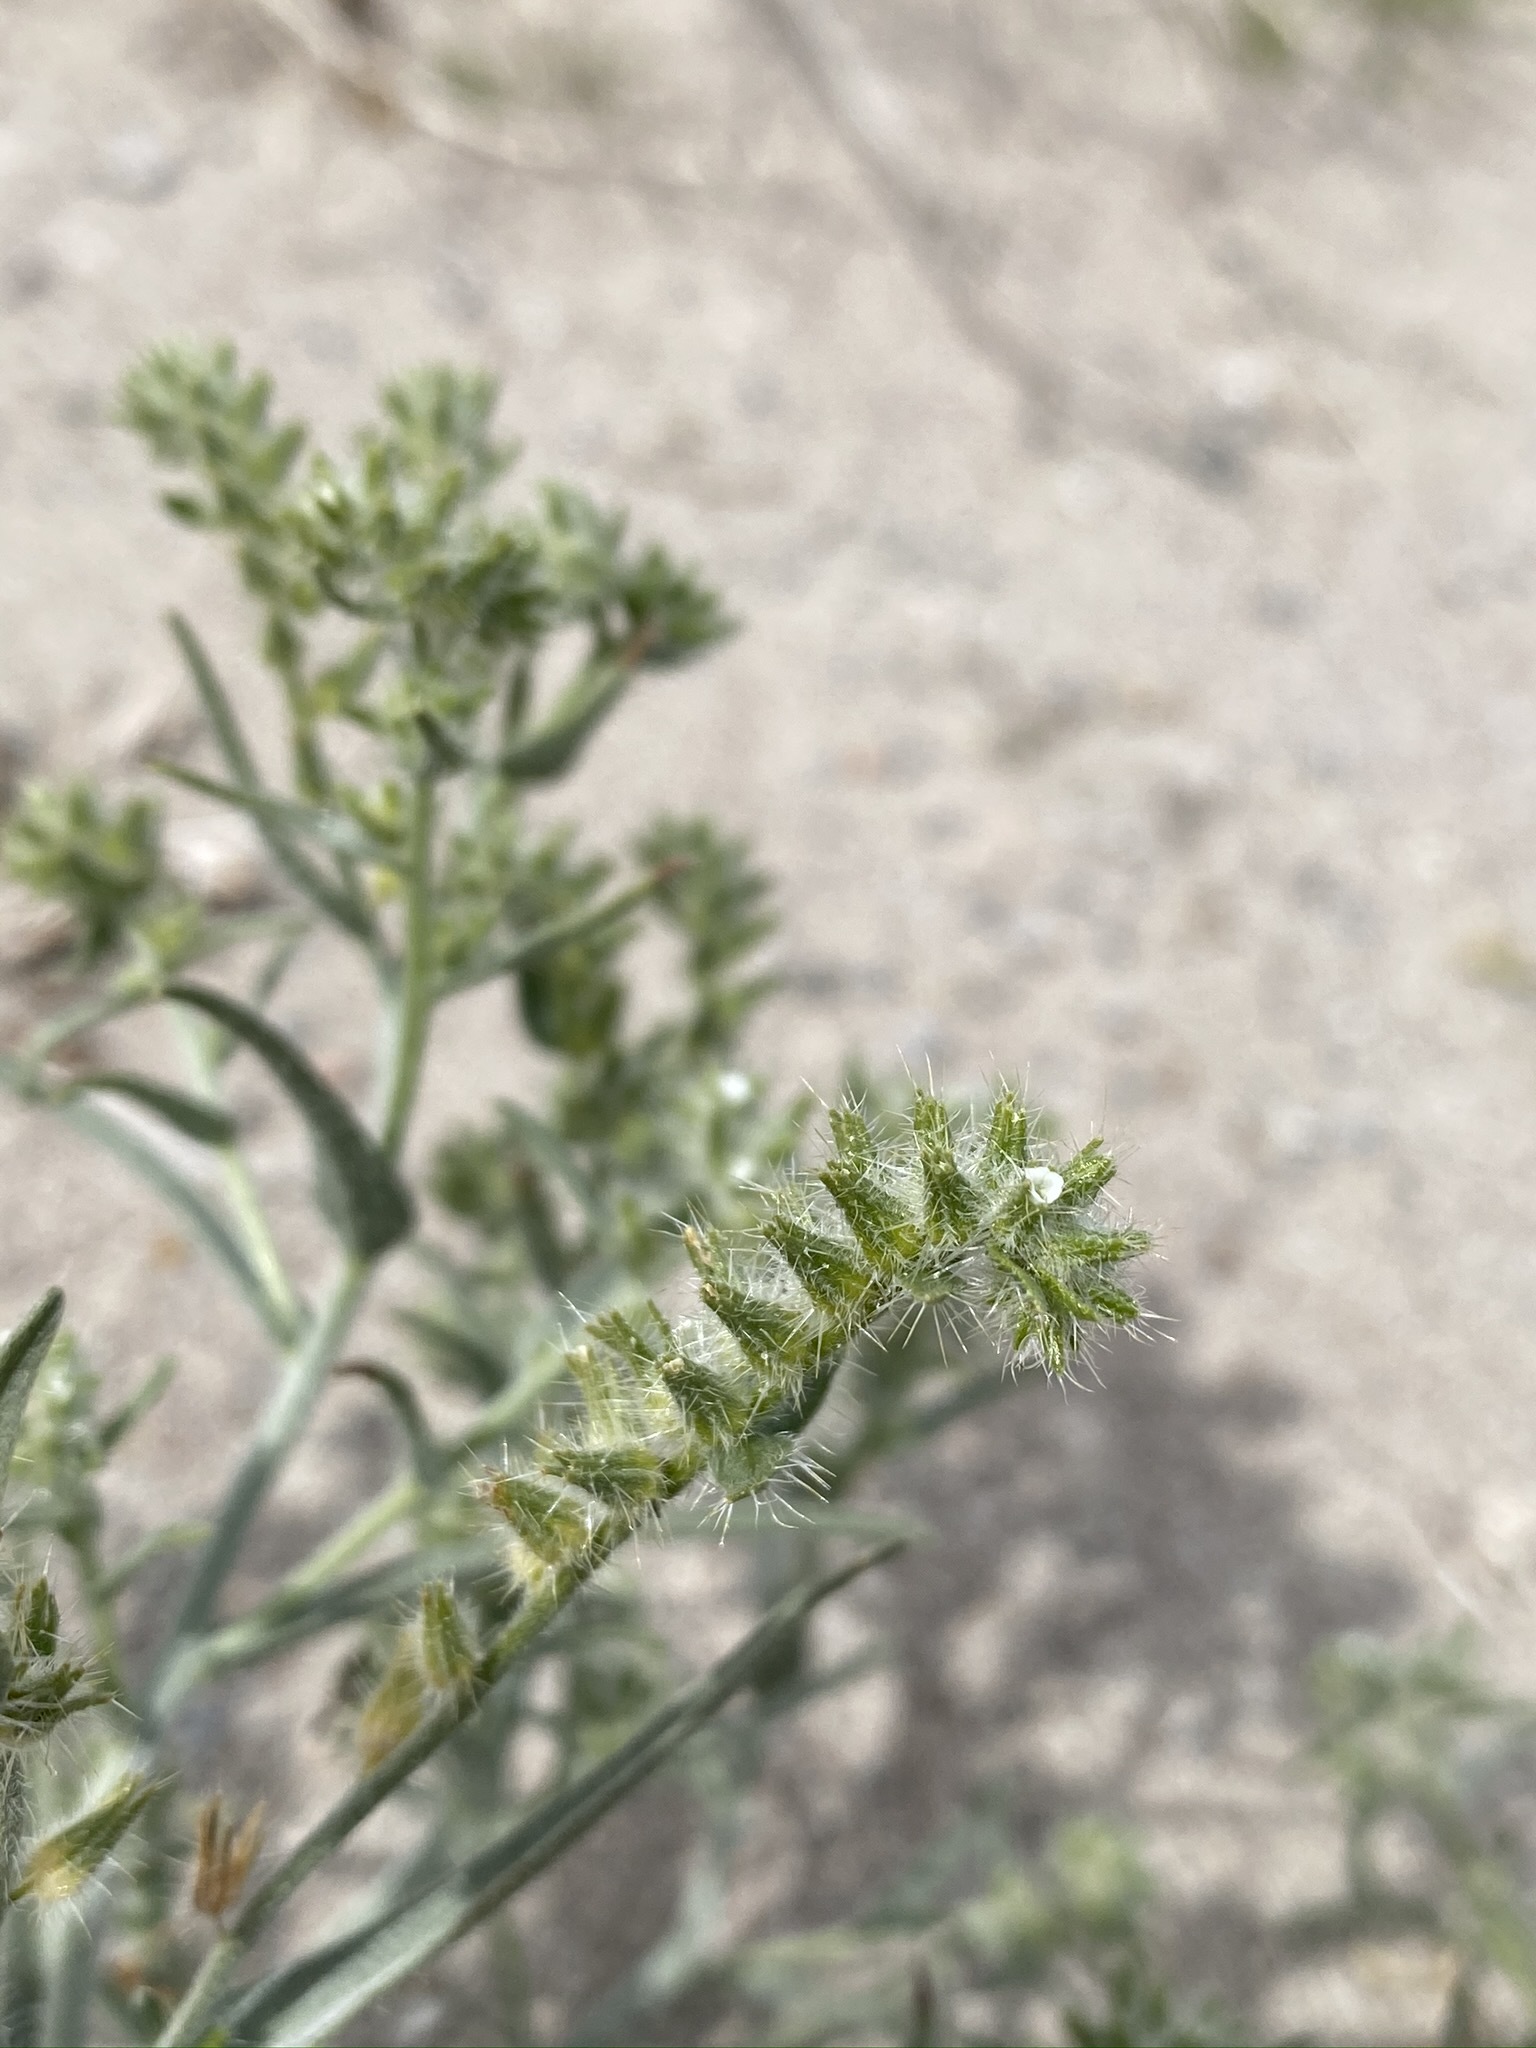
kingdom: Plantae
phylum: Tracheophyta
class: Magnoliopsida
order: Boraginales
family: Boraginaceae
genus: Johnstonella
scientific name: Johnstonella costata
